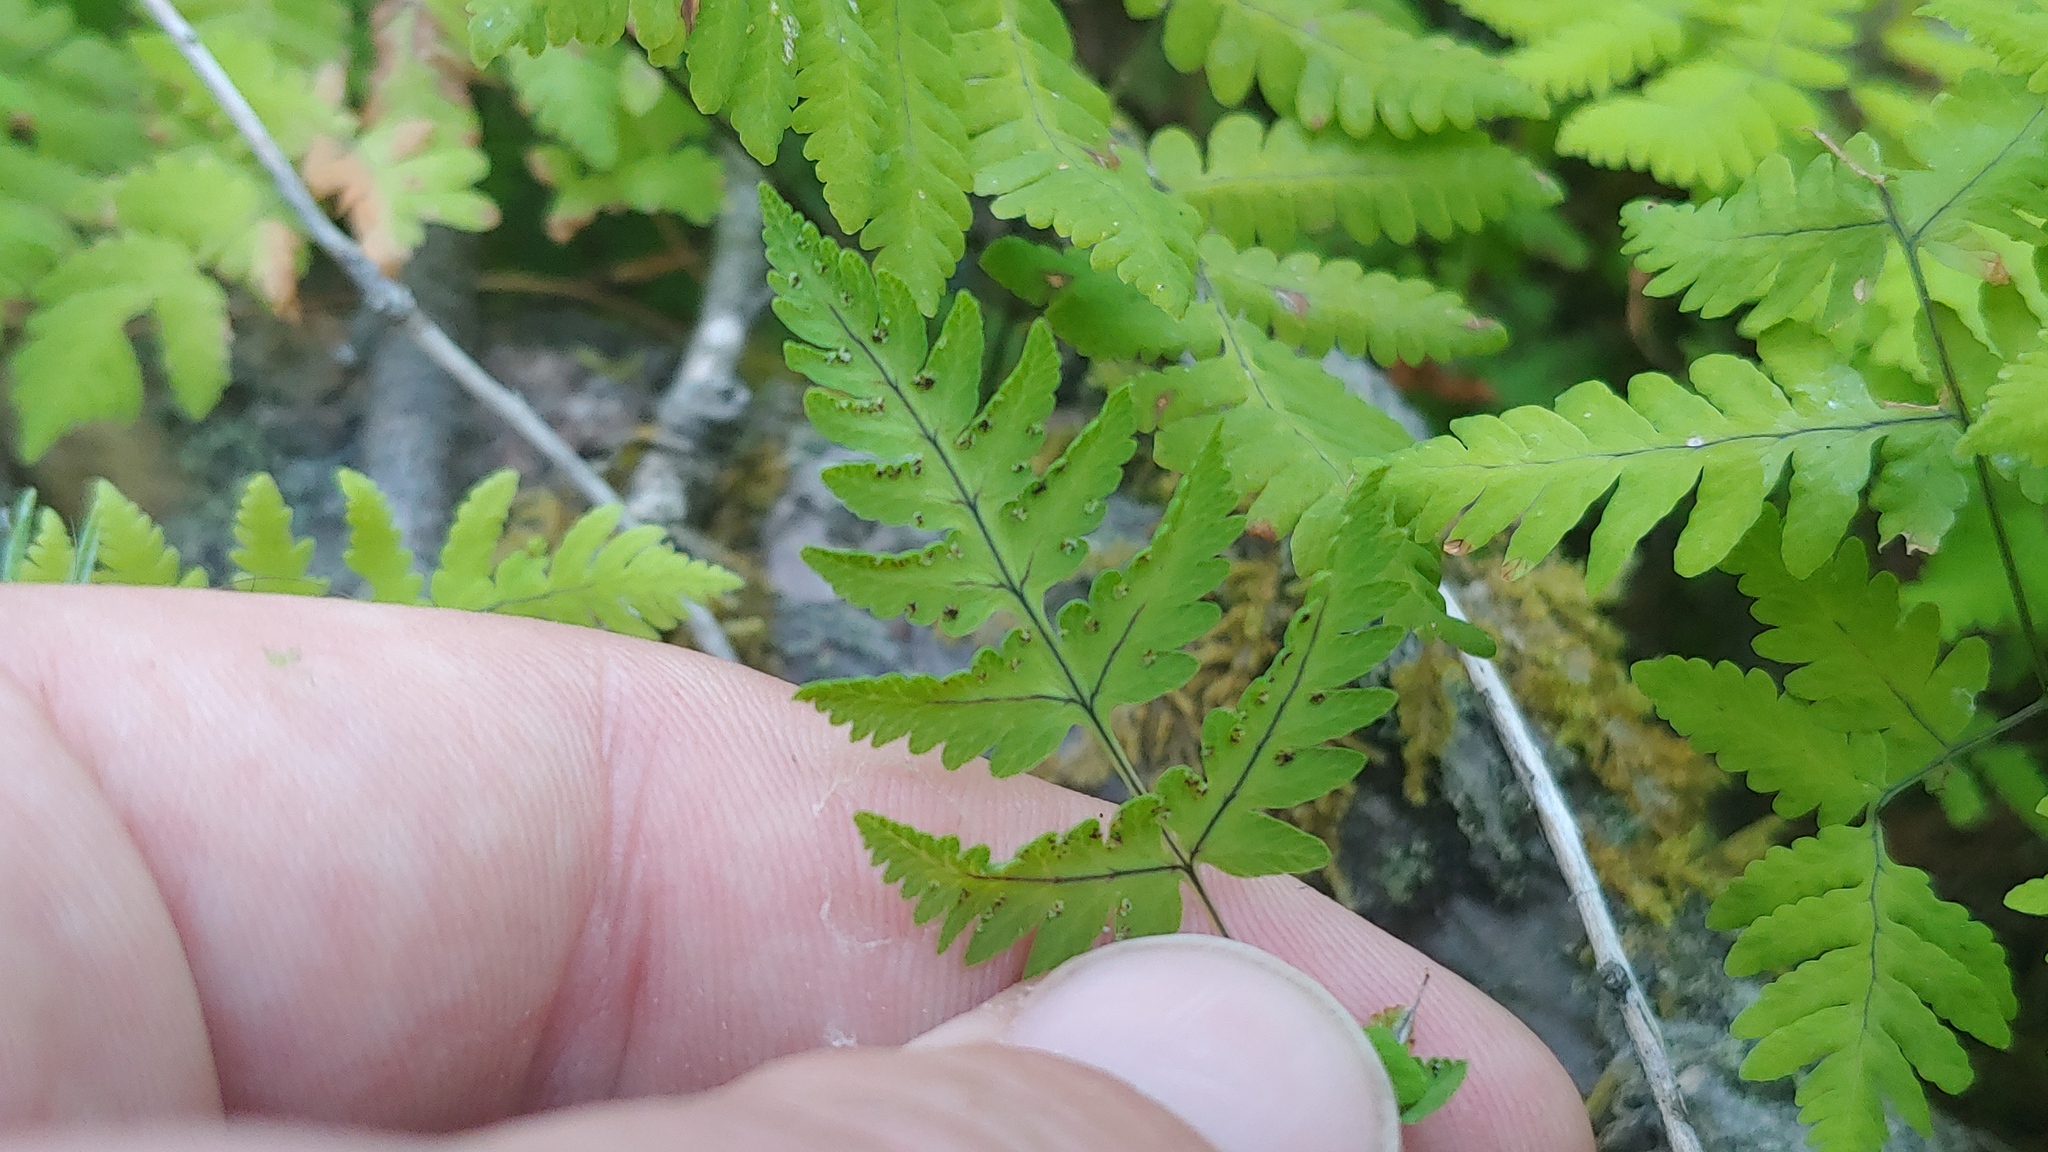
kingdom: Plantae
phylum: Tracheophyta
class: Polypodiopsida
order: Polypodiales
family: Cystopteridaceae
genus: Gymnocarpium
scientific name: Gymnocarpium dryopteris
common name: Oak fern
